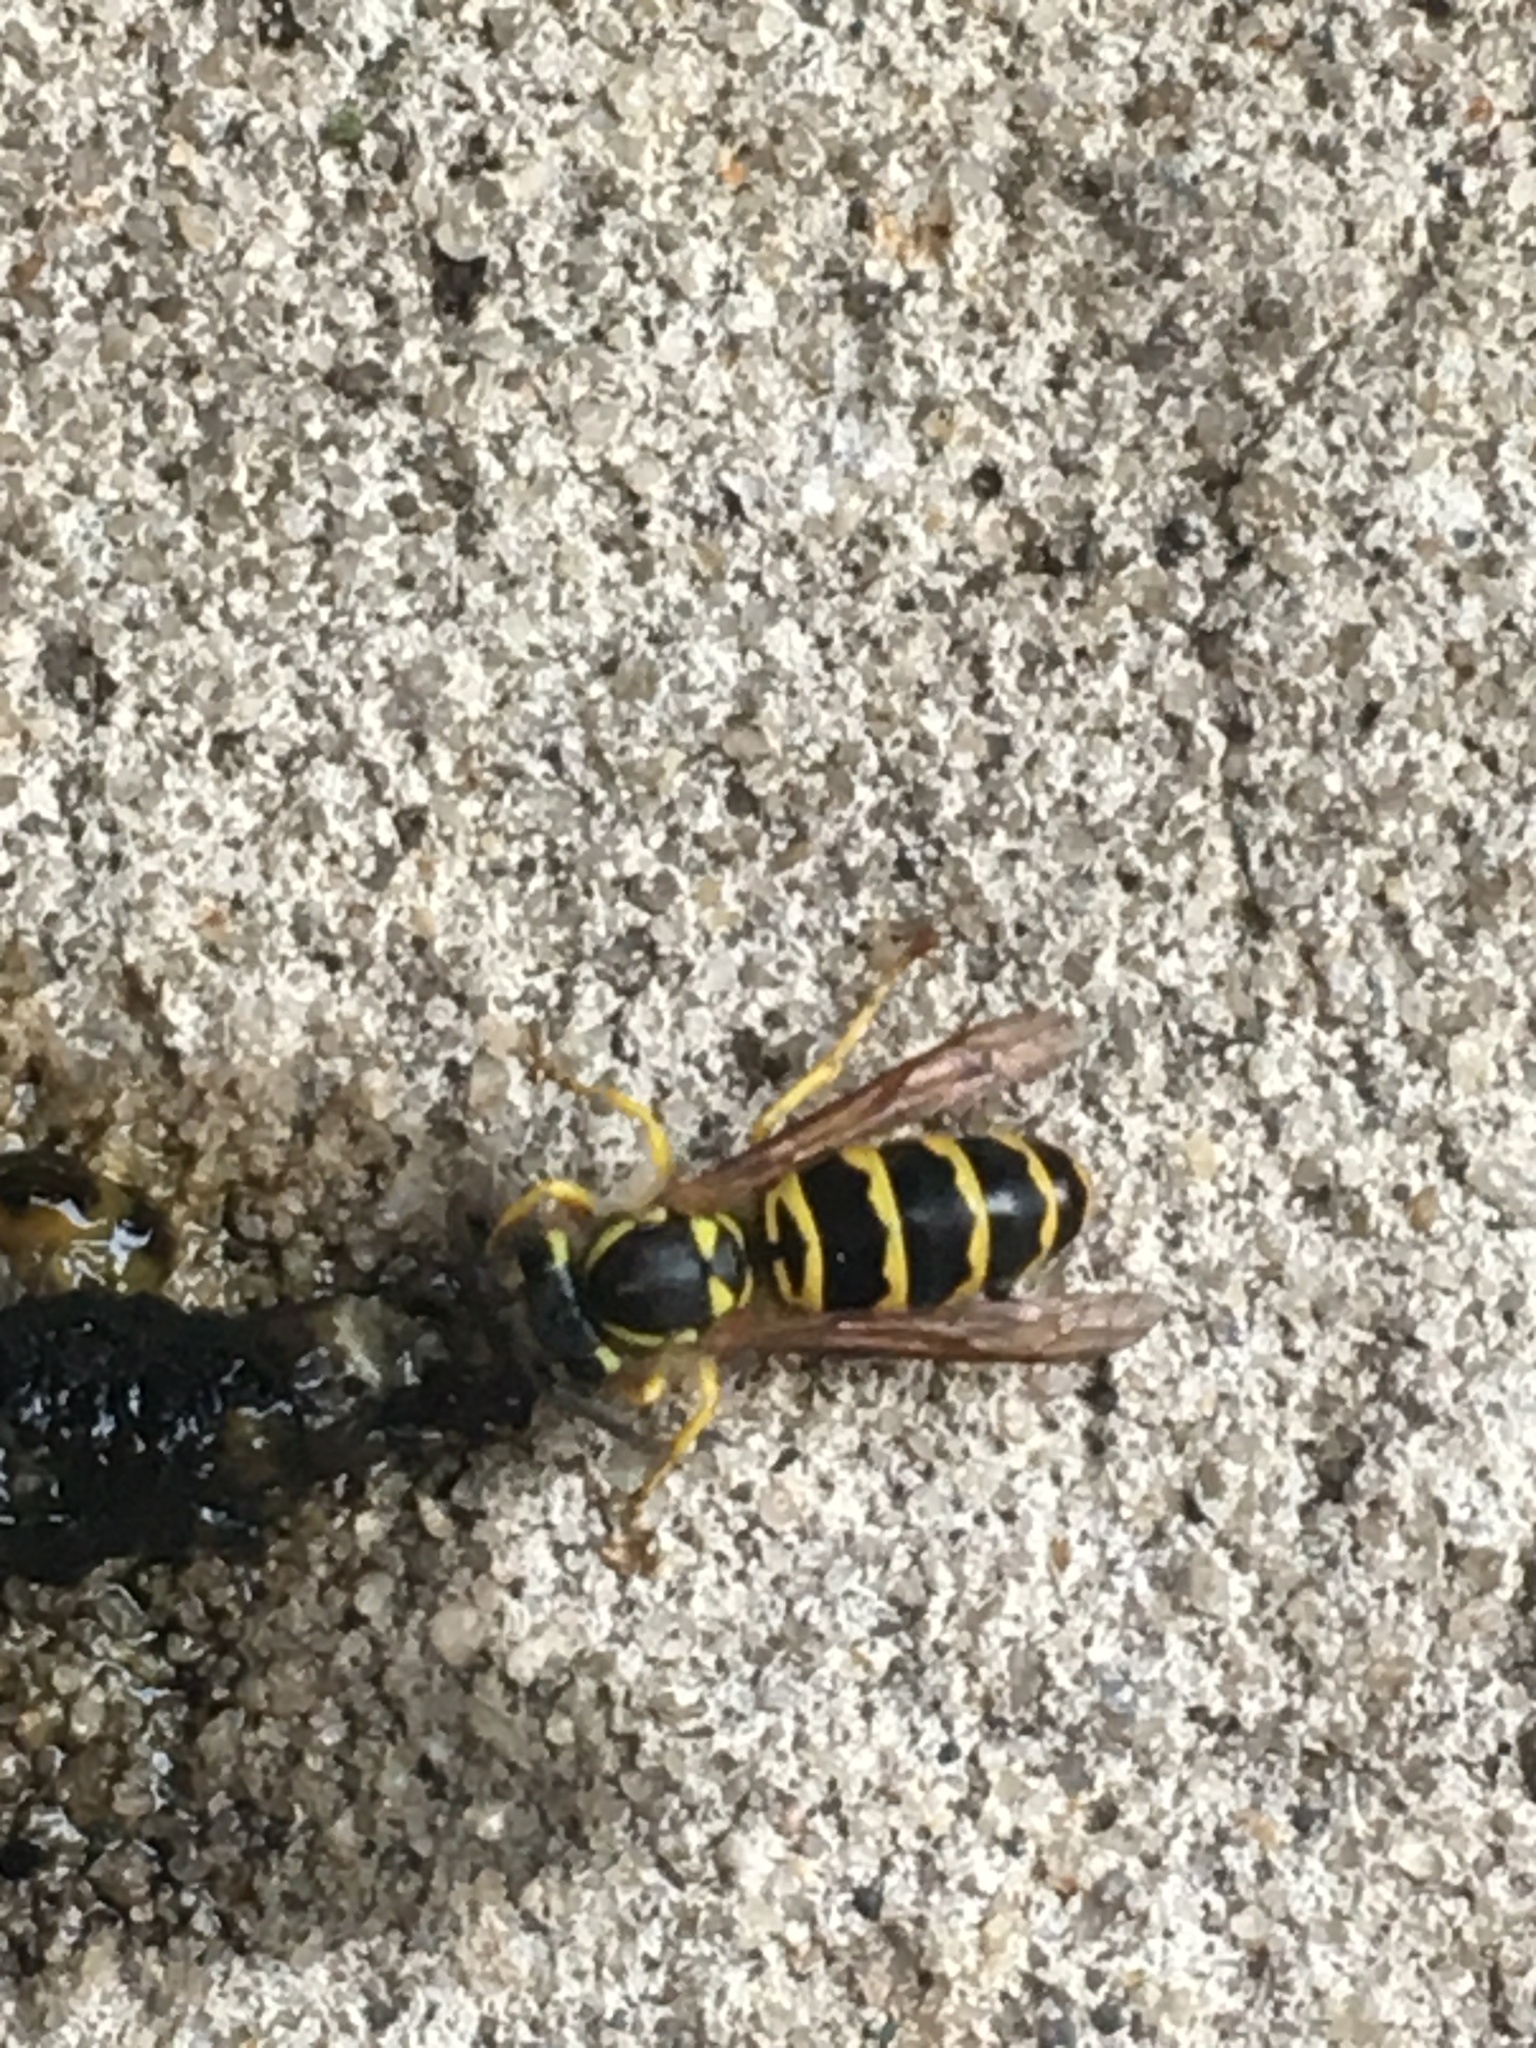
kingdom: Animalia
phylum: Arthropoda
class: Insecta
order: Hymenoptera
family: Vespidae
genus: Vespula
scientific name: Vespula maculifrons
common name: Eastern yellowjacket
